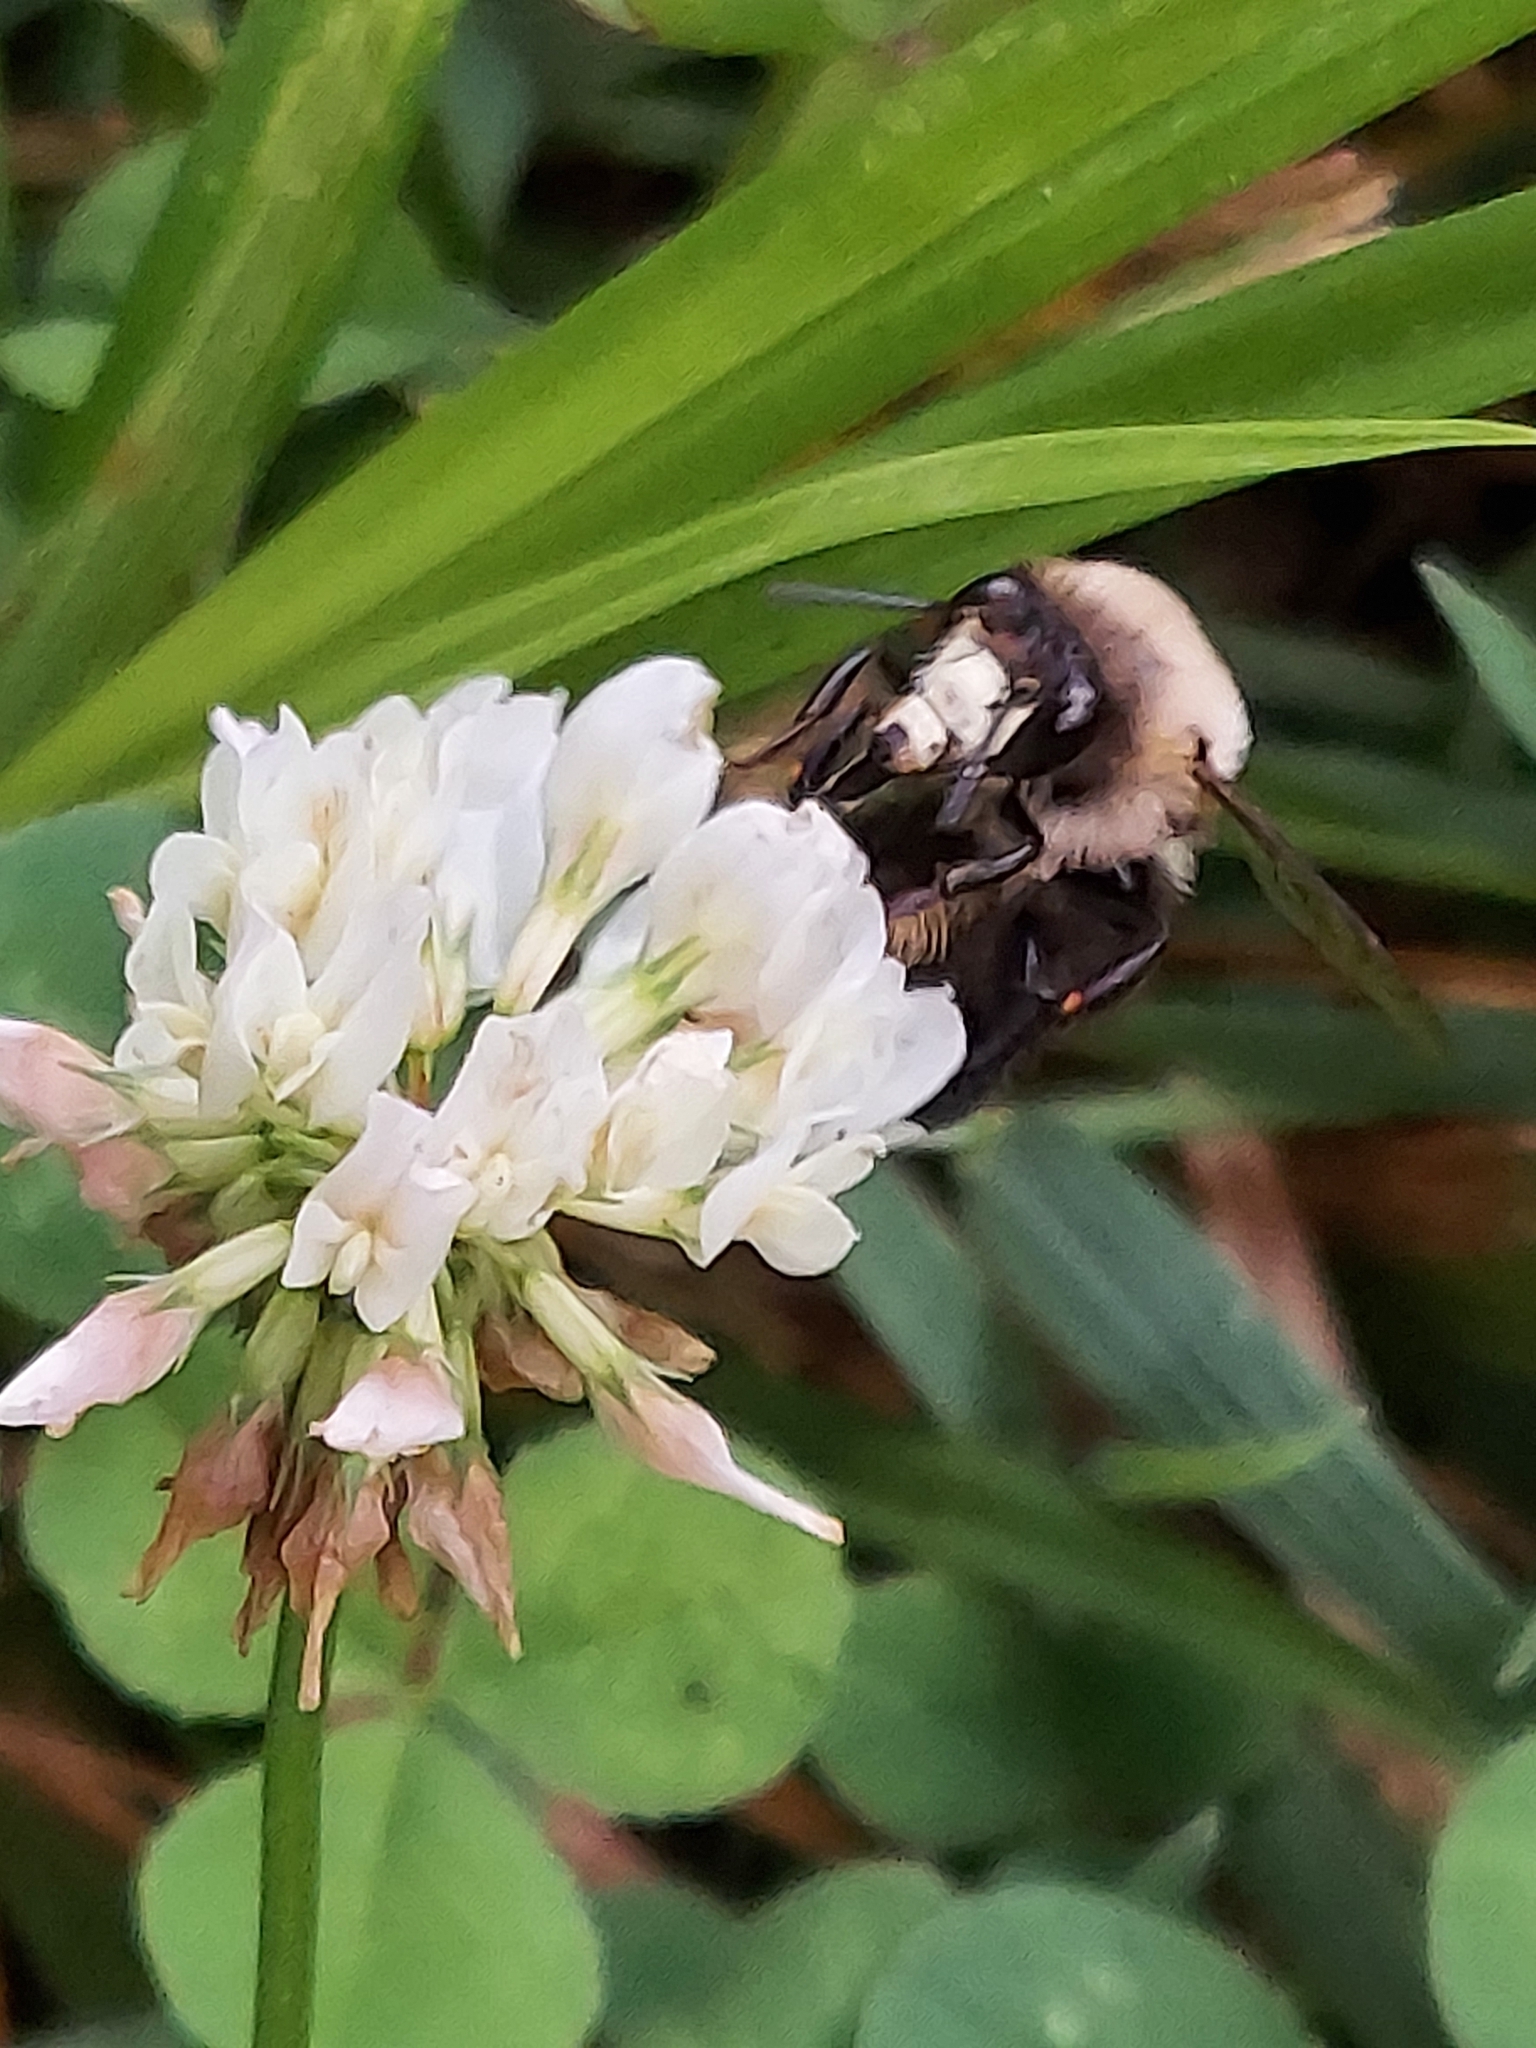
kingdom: Animalia
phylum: Arthropoda
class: Insecta
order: Hymenoptera
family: Apidae
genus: Anthophora
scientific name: Anthophora abrupta
